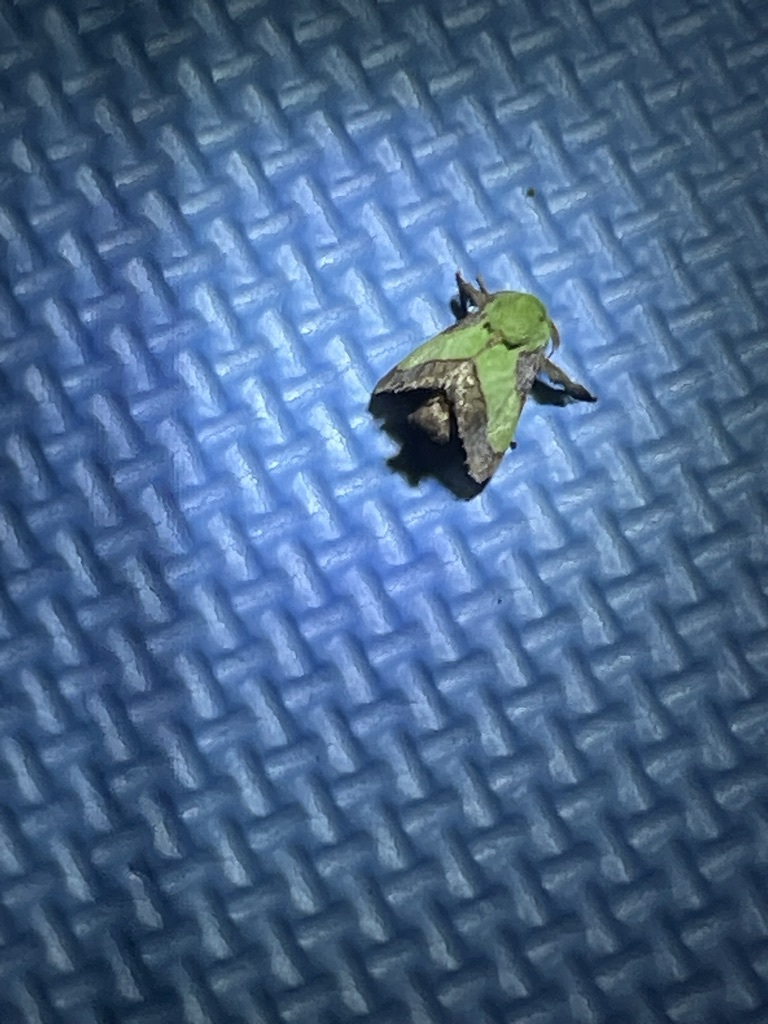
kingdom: Animalia
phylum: Arthropoda
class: Insecta
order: Lepidoptera
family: Limacodidae
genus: Parasa
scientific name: Parasa chloris
